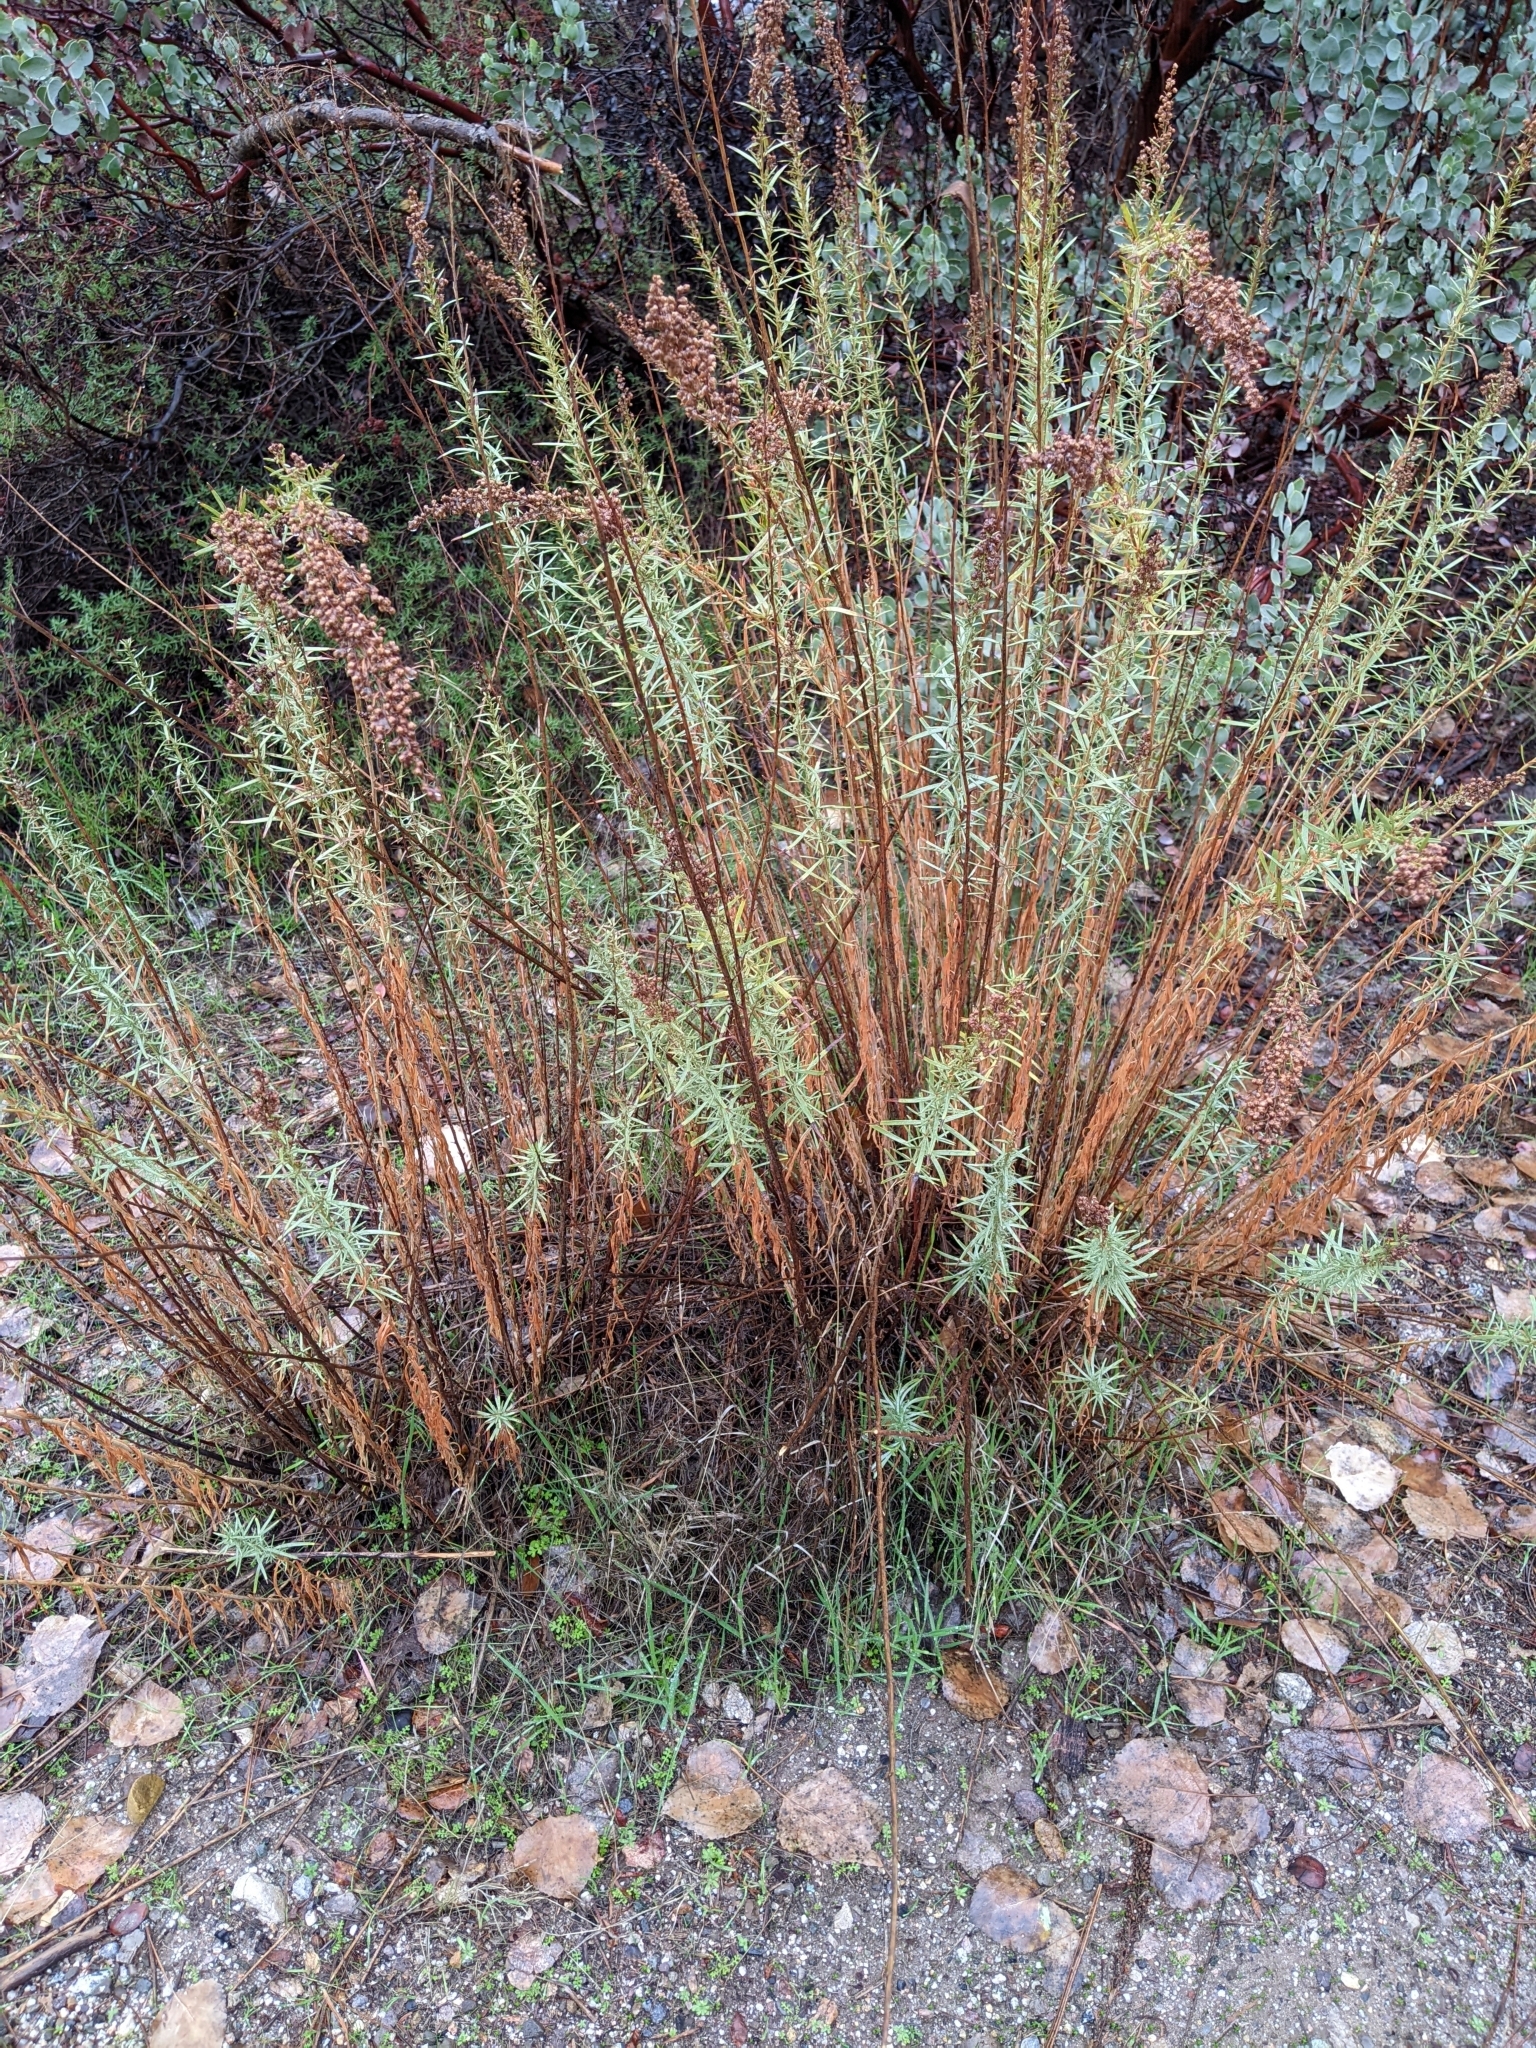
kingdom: Plantae
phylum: Tracheophyta
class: Magnoliopsida
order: Asterales
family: Asteraceae
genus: Artemisia
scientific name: Artemisia dracunculus
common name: Tarragon
